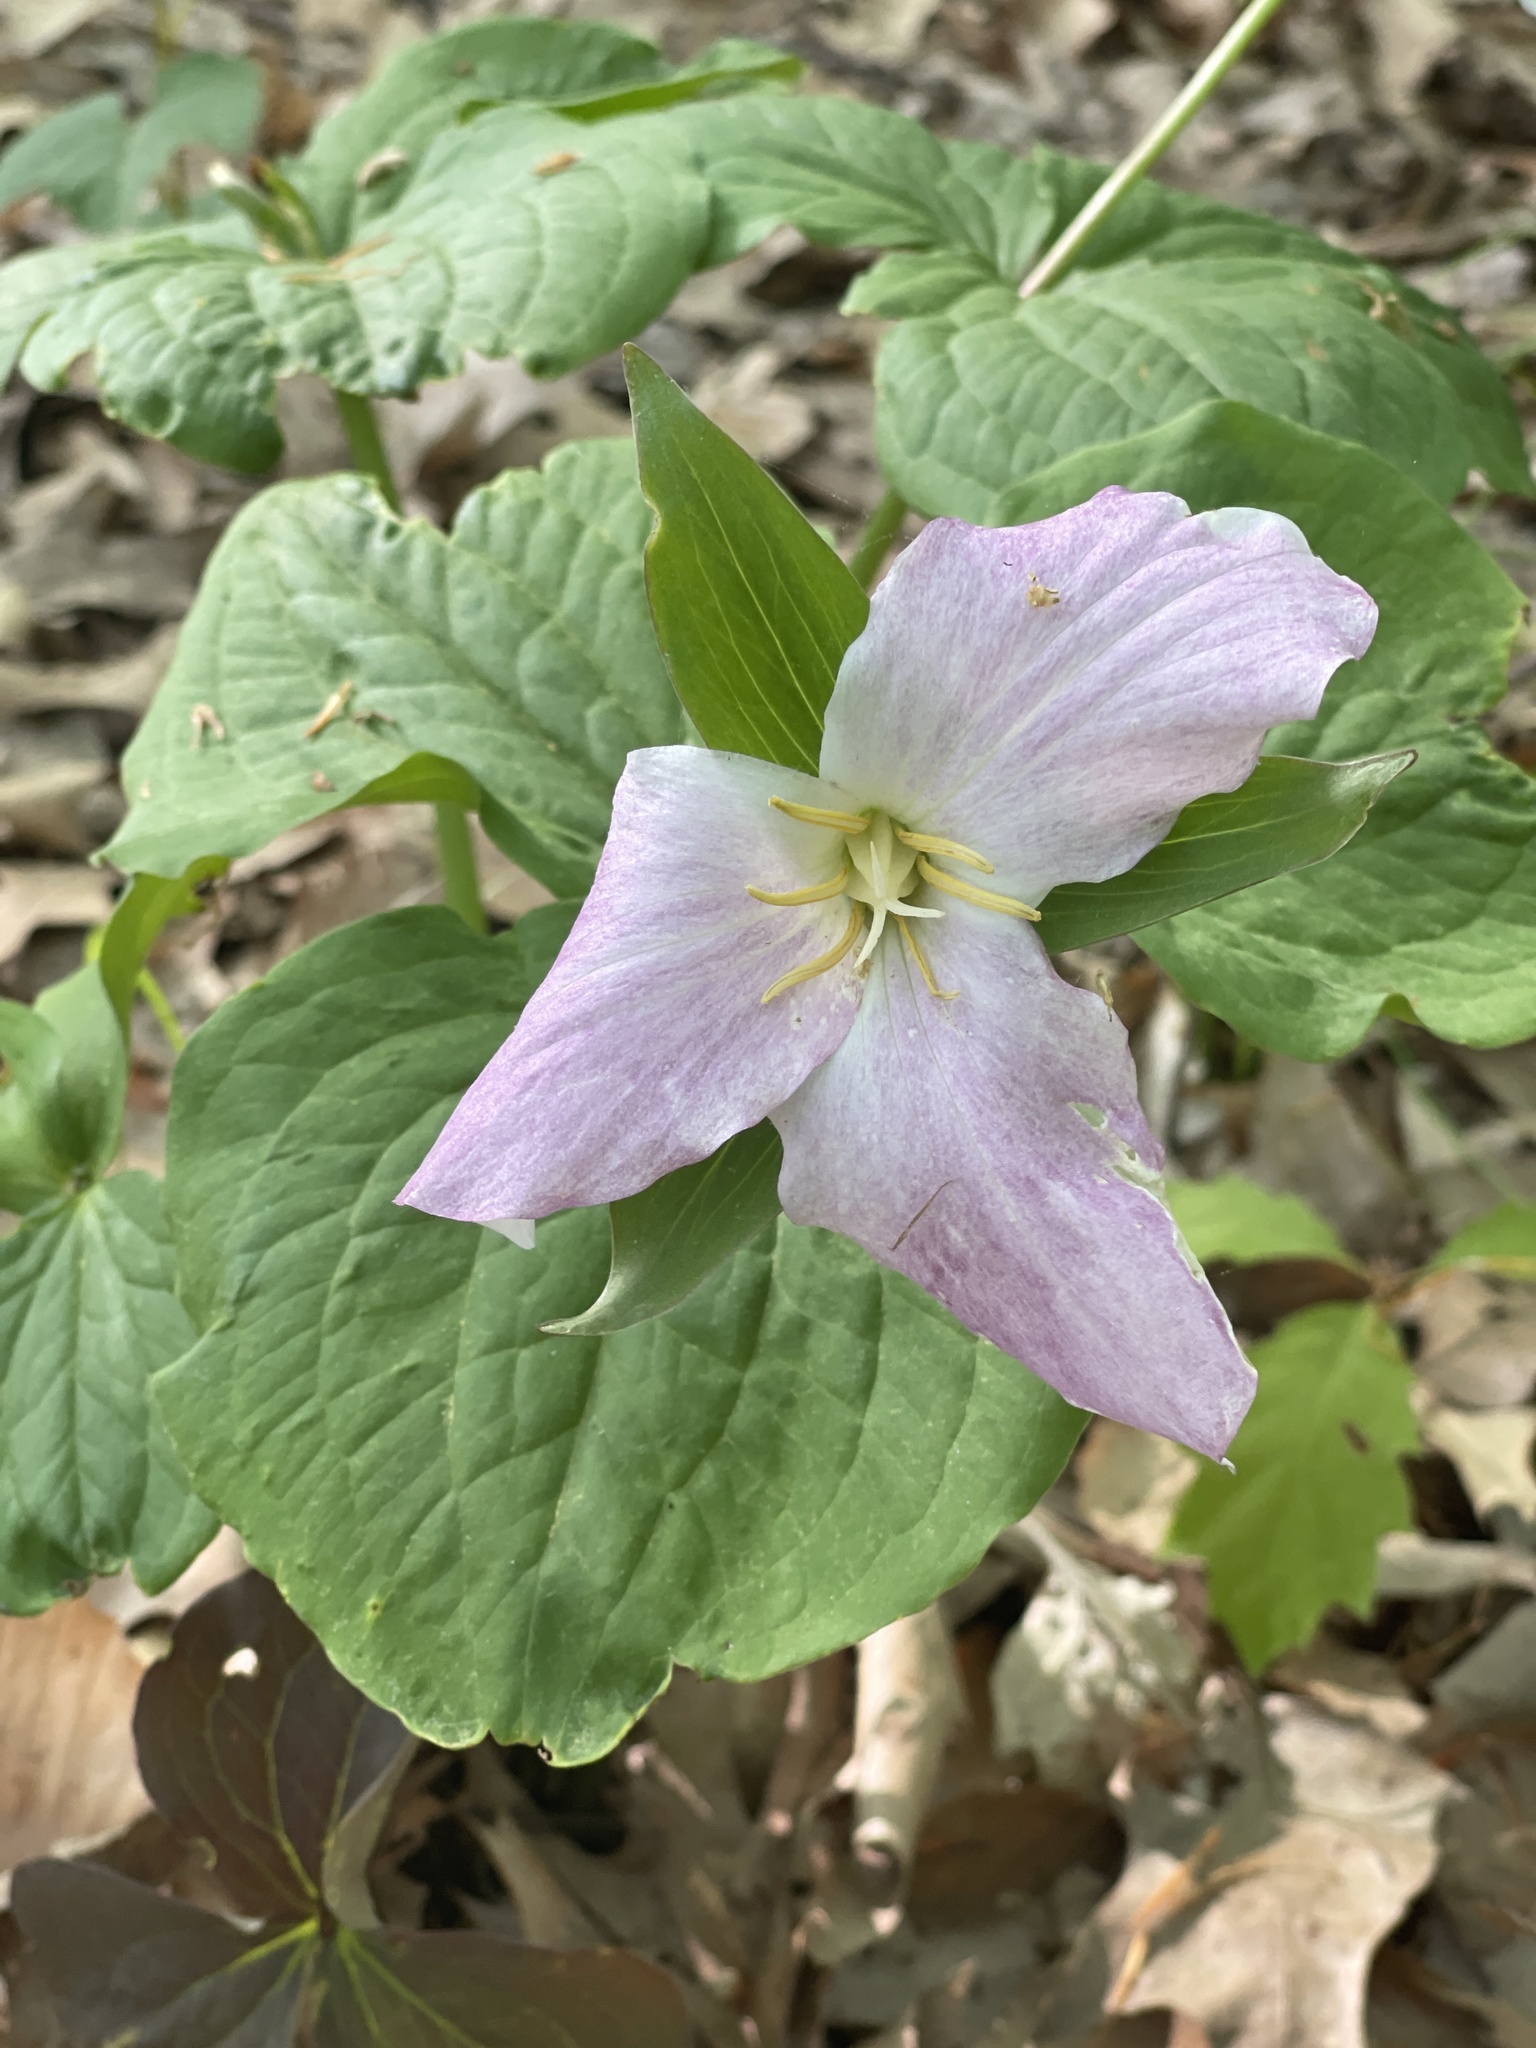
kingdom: Plantae
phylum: Tracheophyta
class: Liliopsida
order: Liliales
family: Melanthiaceae
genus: Trillium
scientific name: Trillium grandiflorum
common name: Great white trillium
